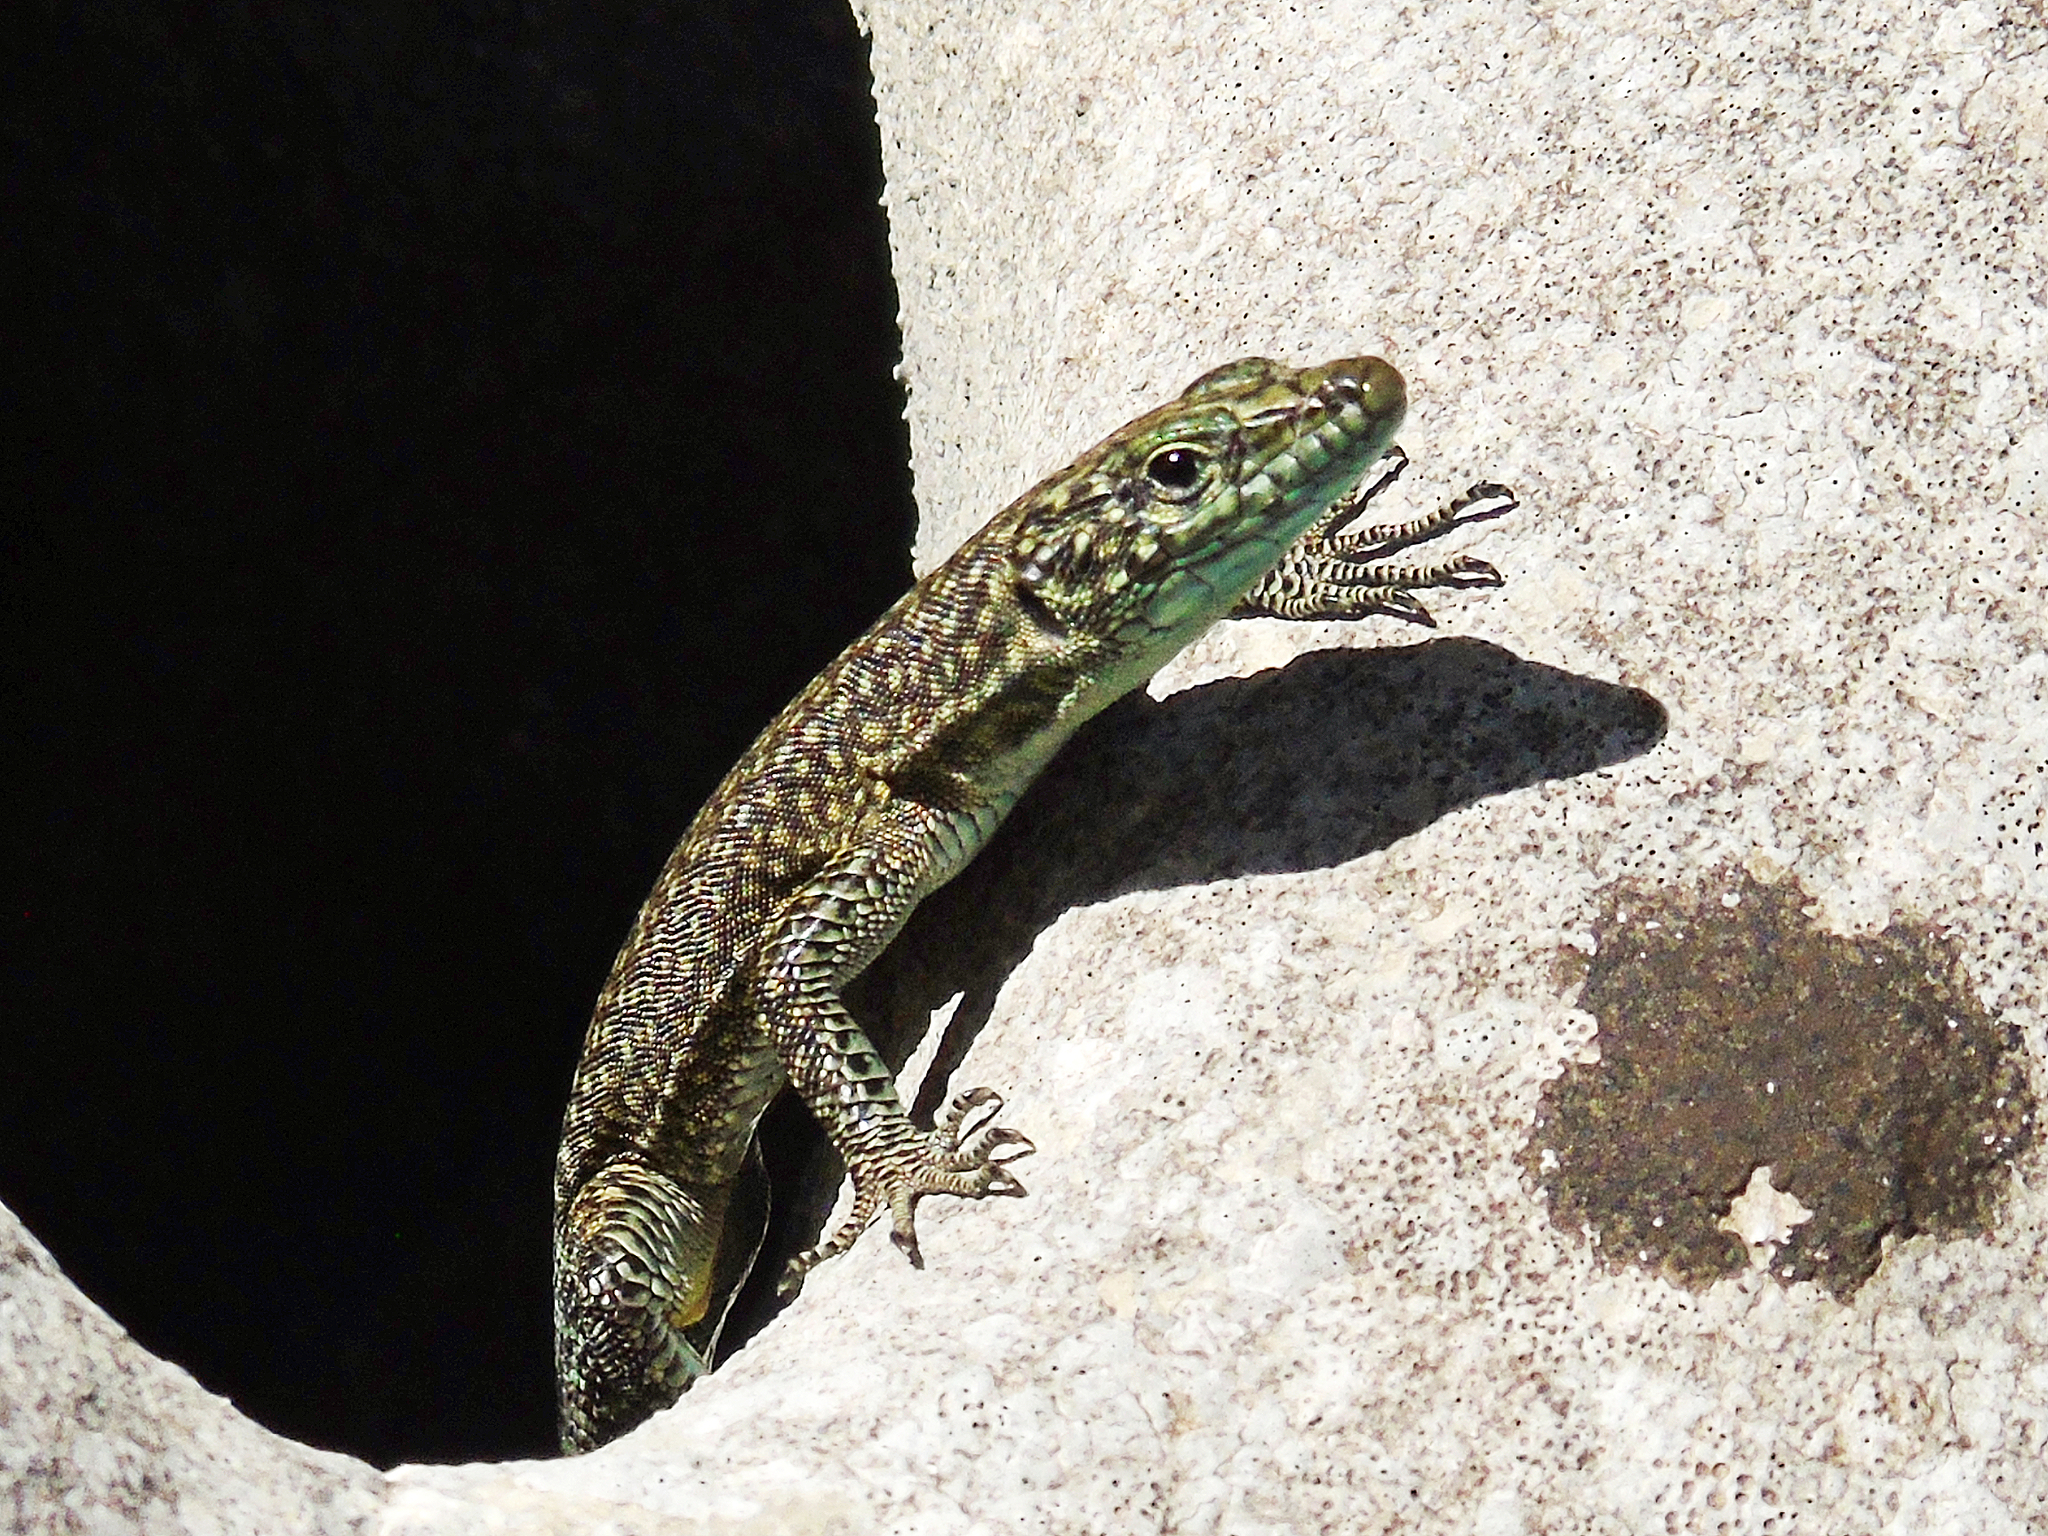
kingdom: Animalia
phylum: Chordata
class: Squamata
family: Lacertidae
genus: Dalmatolacerta
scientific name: Dalmatolacerta oxycephala
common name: Sharp-snouted rock lizard
